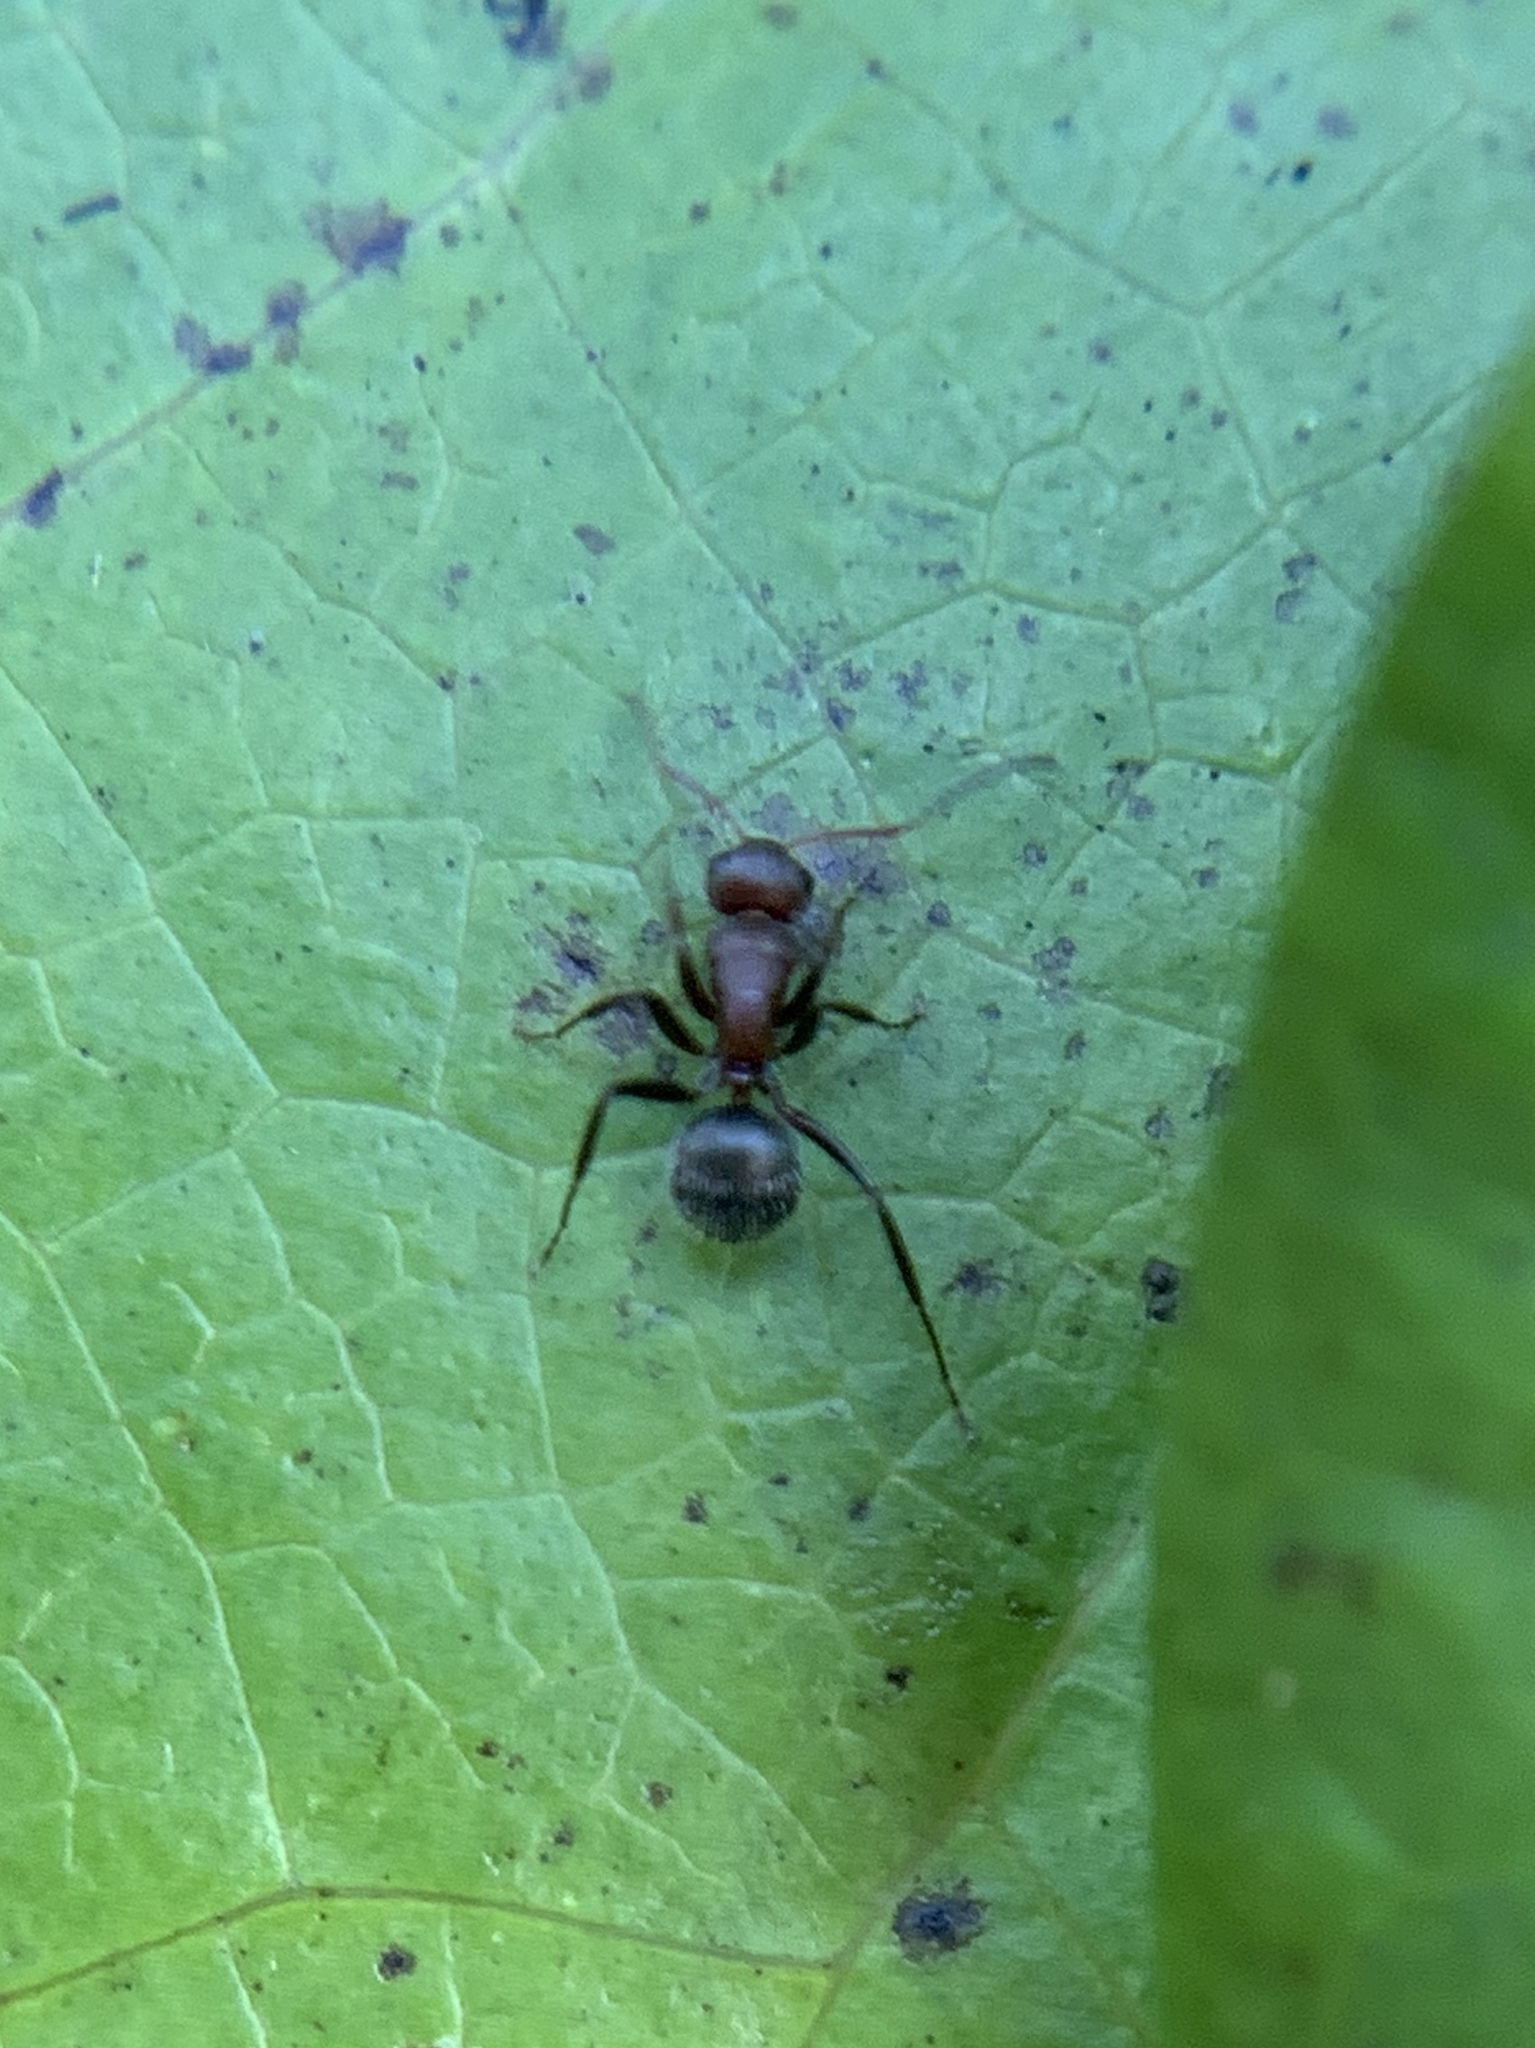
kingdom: Animalia
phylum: Arthropoda
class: Insecta
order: Hymenoptera
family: Formicidae
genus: Camponotus
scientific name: Camponotus planatus
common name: Compact carpenter ant
